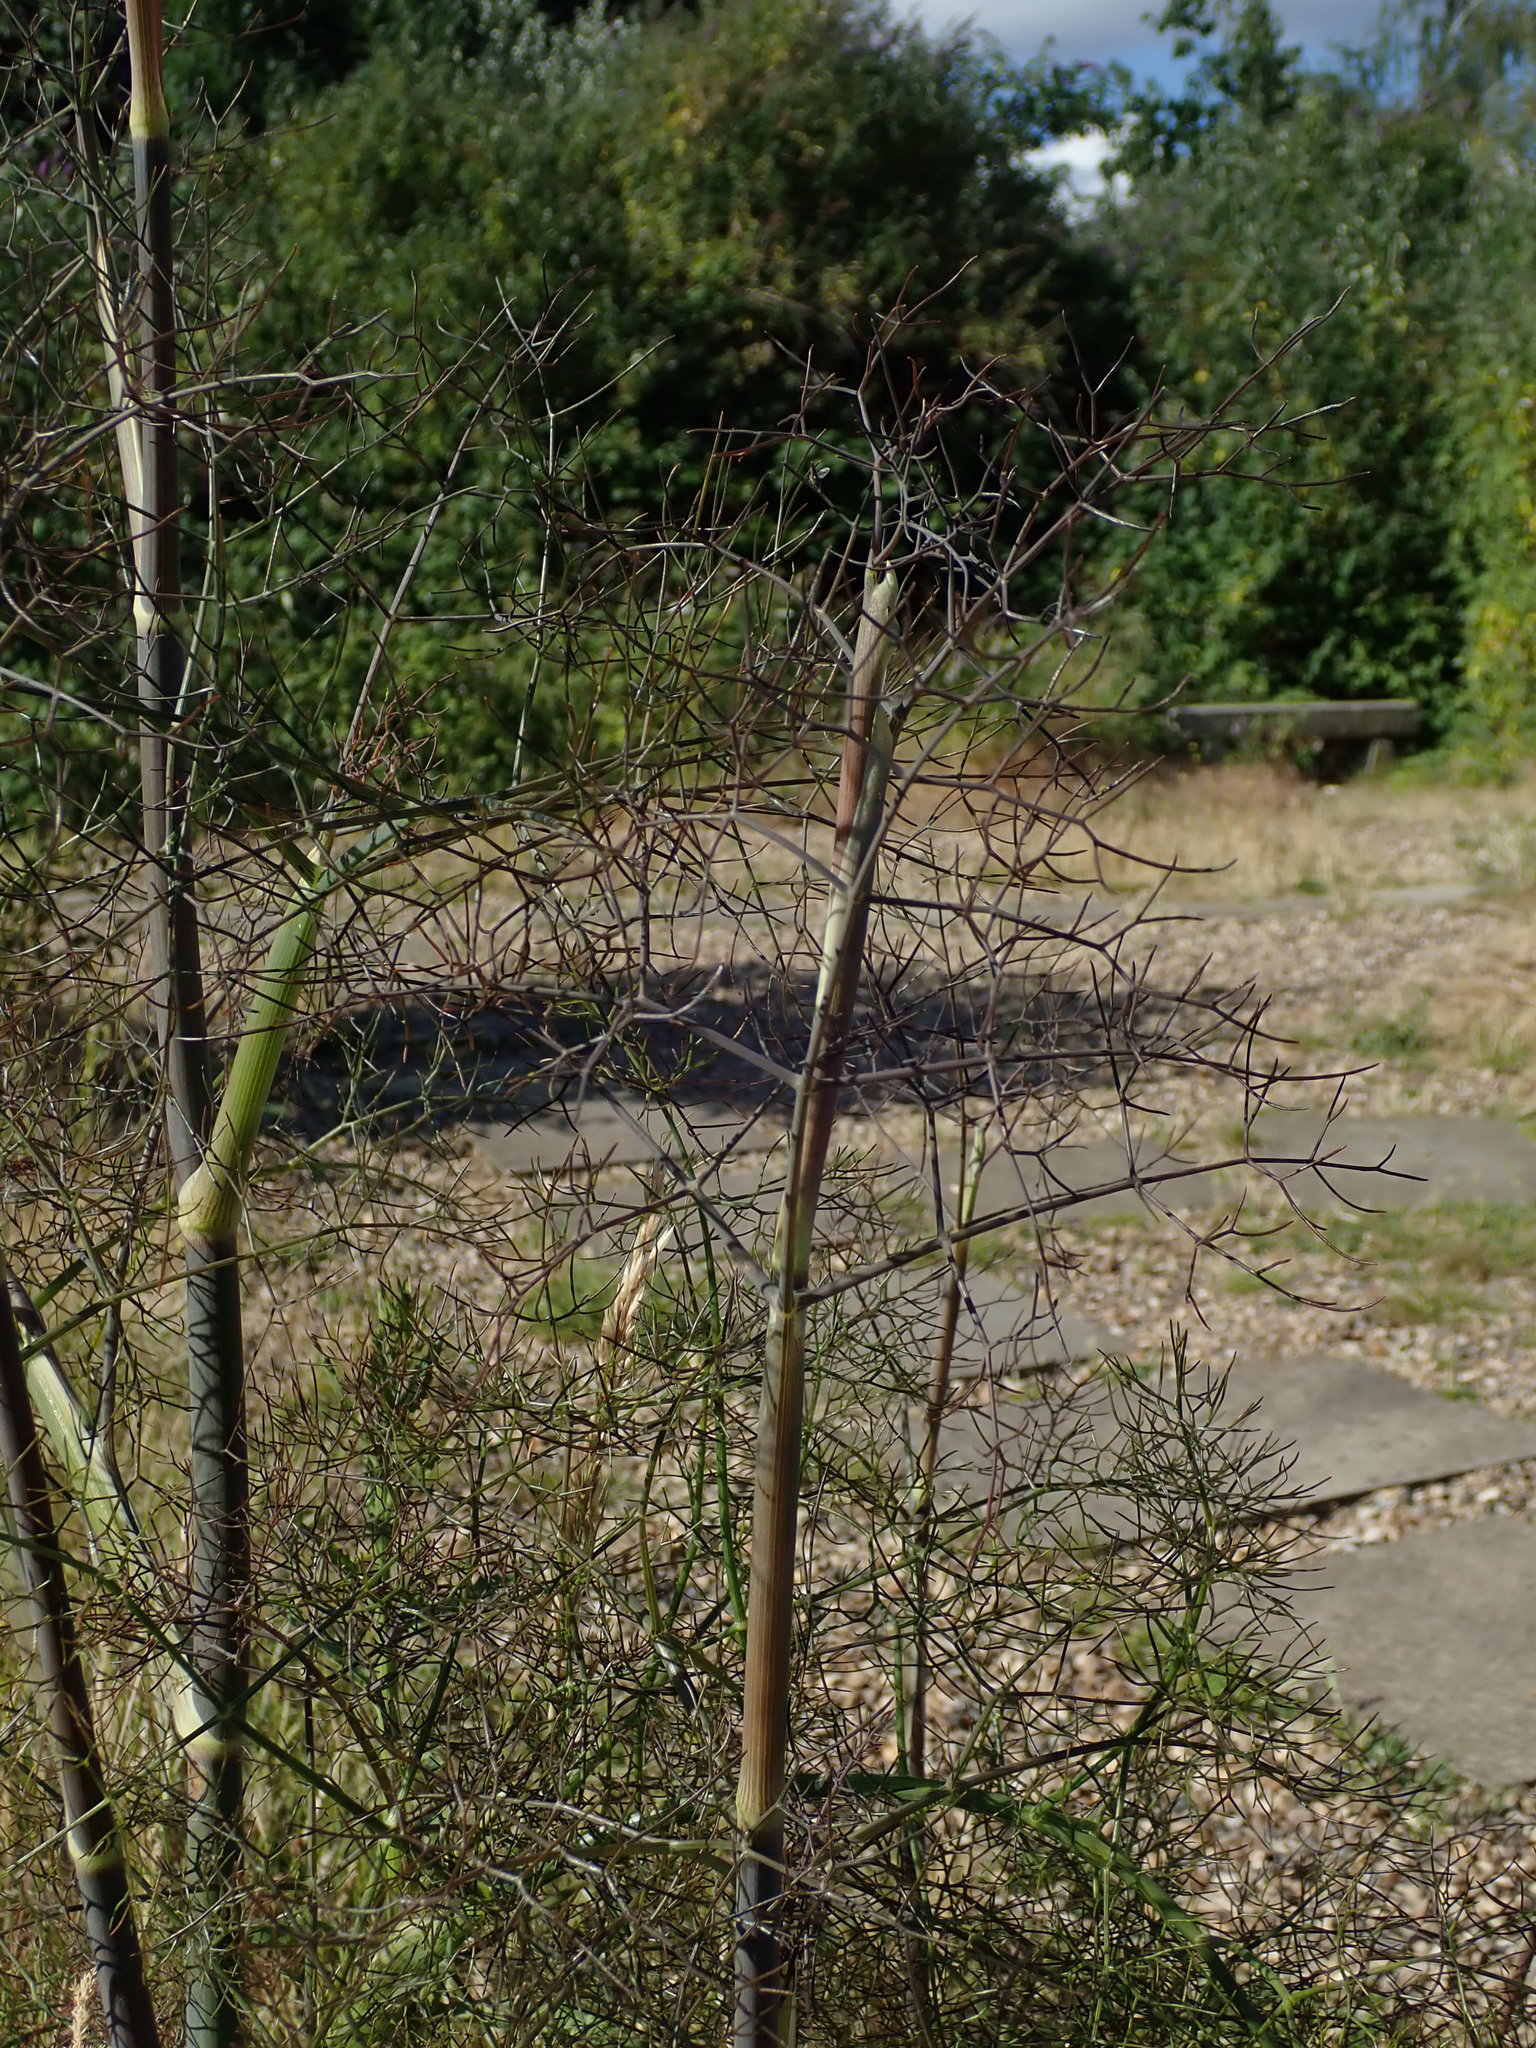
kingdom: Plantae
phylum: Tracheophyta
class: Magnoliopsida
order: Apiales
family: Apiaceae
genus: Foeniculum
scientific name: Foeniculum vulgare
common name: Fennel
